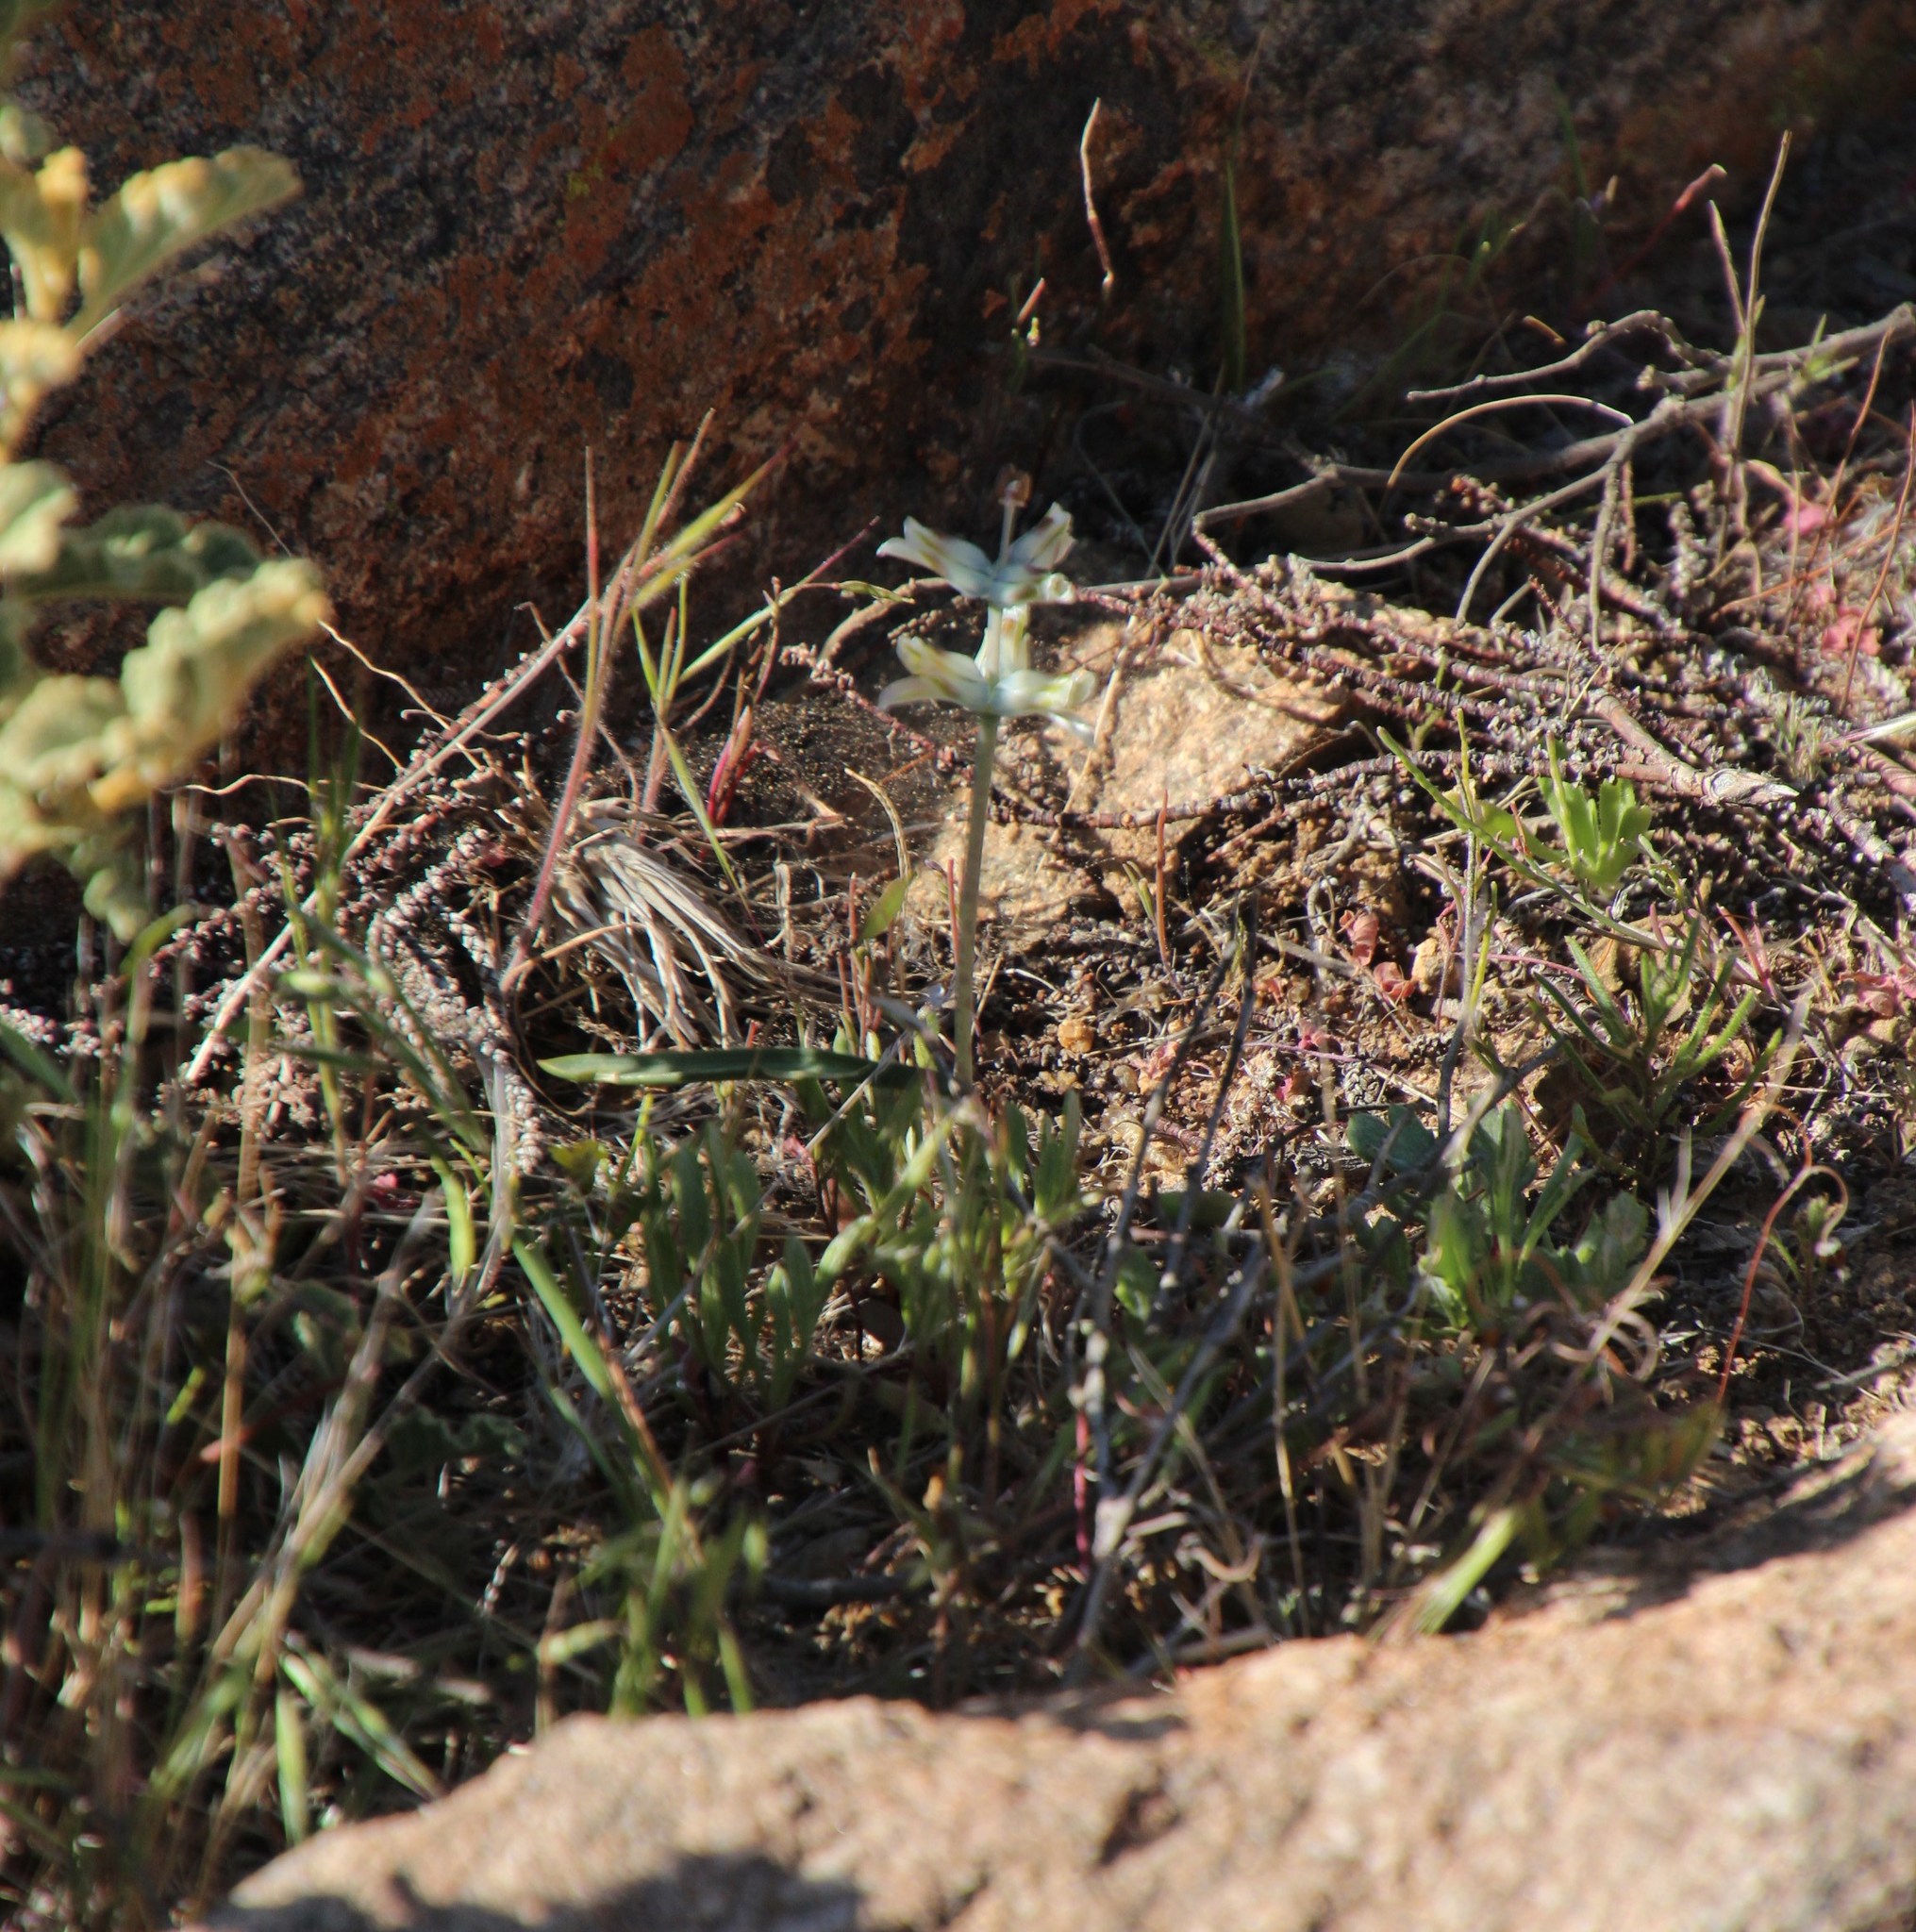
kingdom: Plantae
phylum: Tracheophyta
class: Liliopsida
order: Asparagales
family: Asparagaceae
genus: Lachenalia
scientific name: Lachenalia inconspicua
